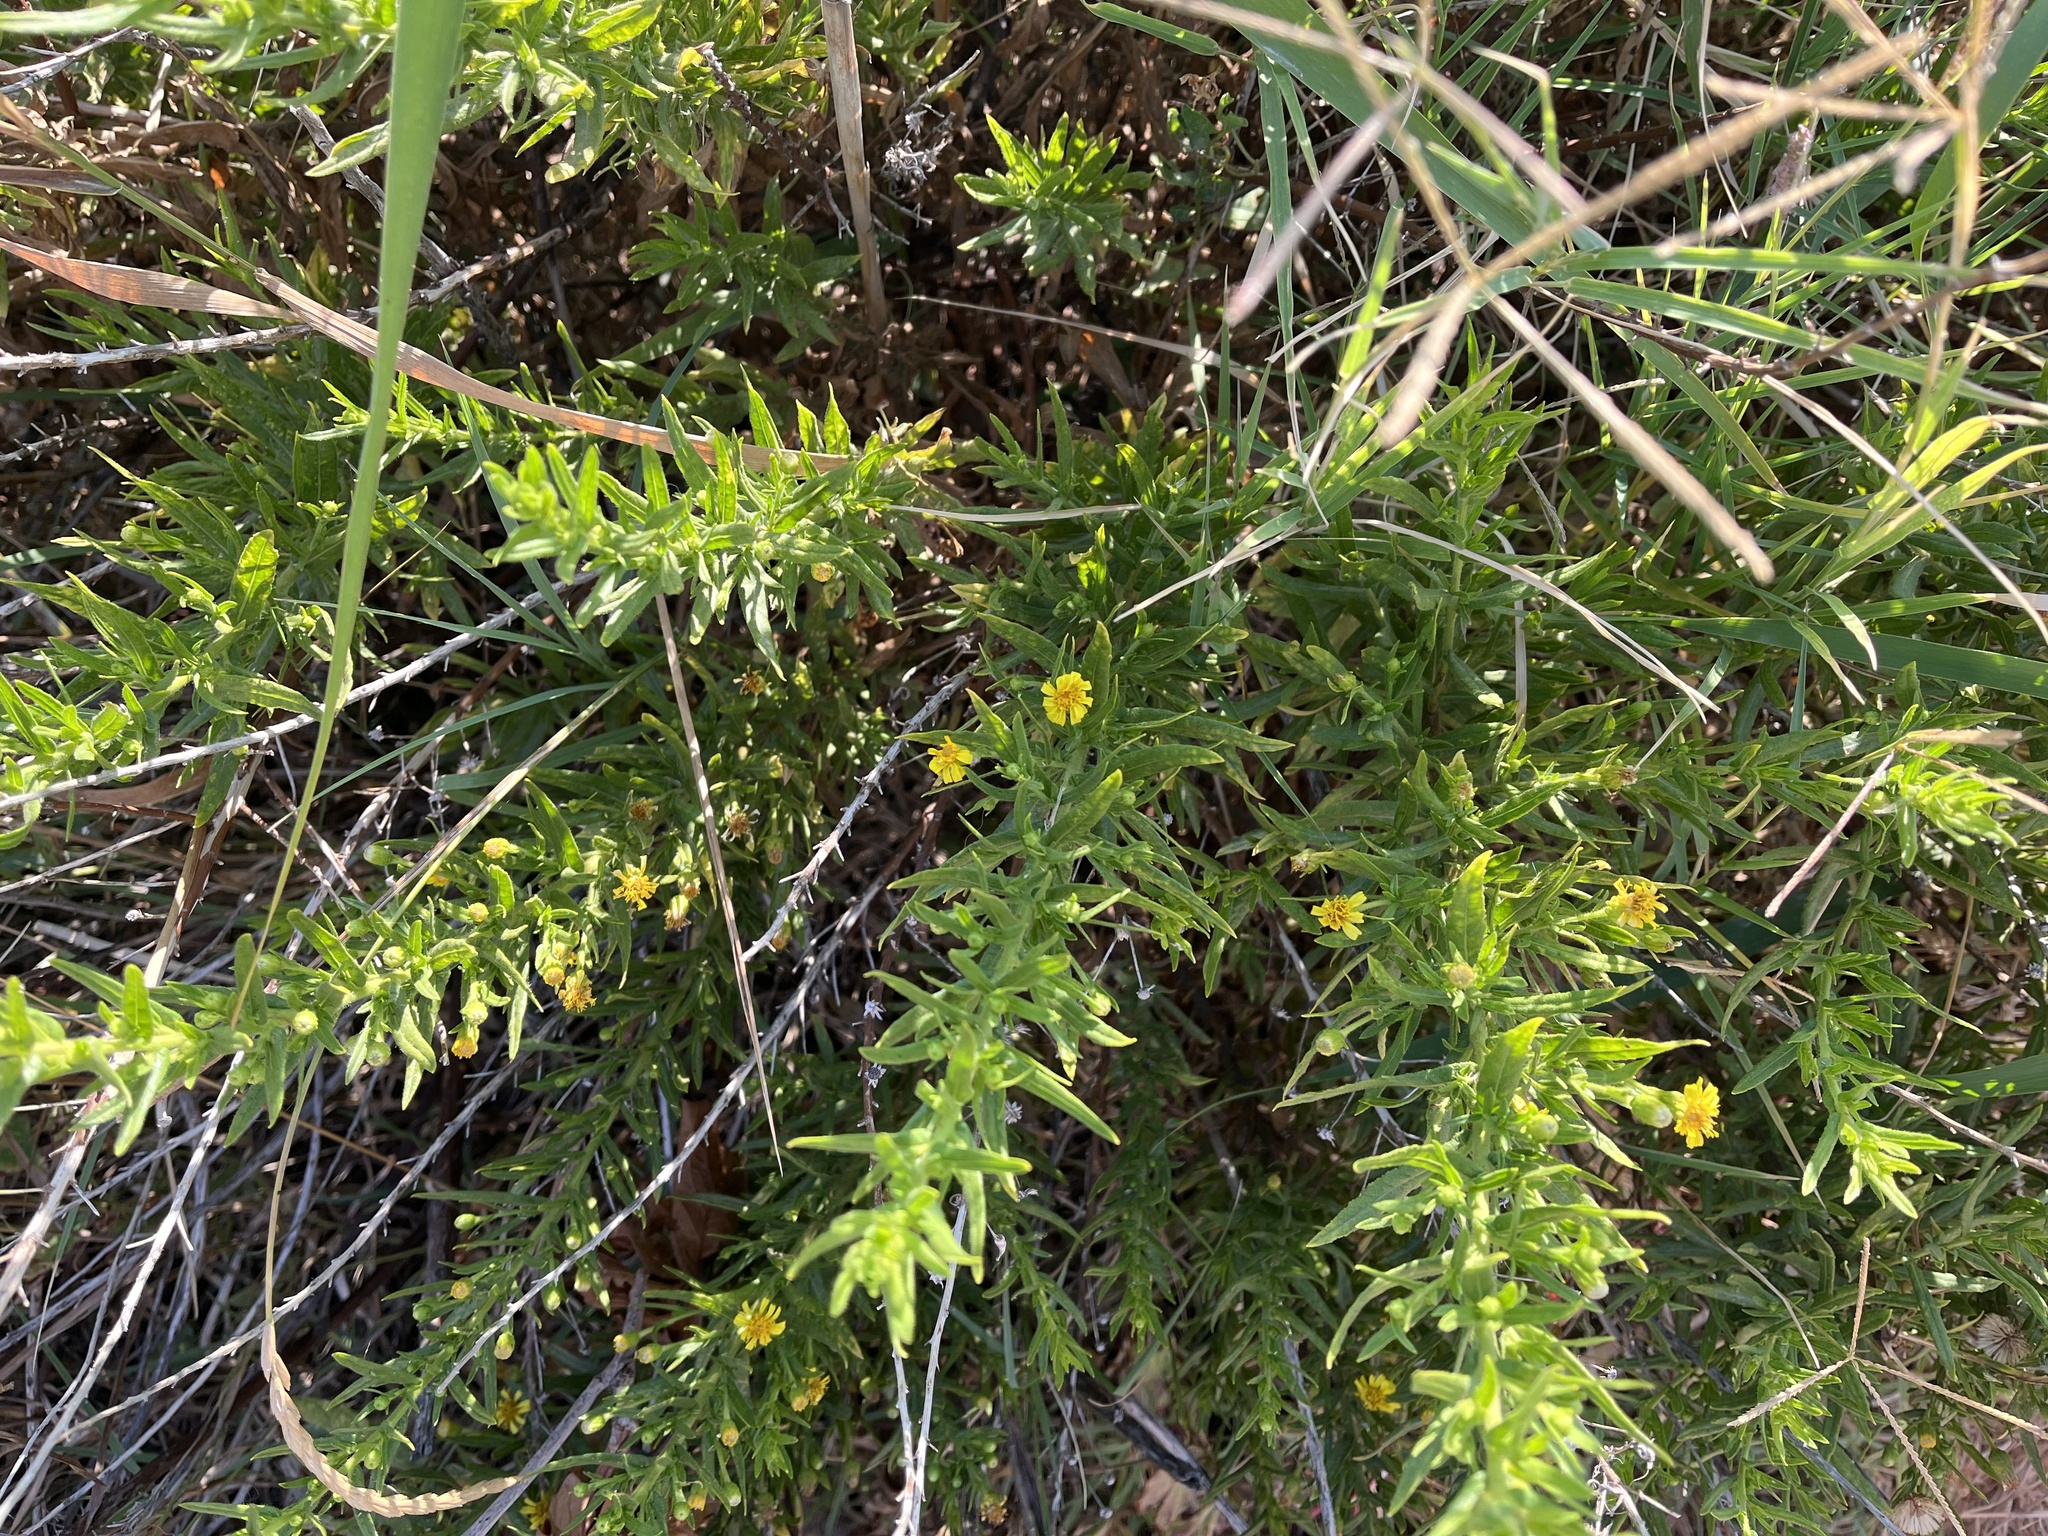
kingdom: Plantae
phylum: Tracheophyta
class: Magnoliopsida
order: Asterales
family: Asteraceae
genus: Dittrichia
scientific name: Dittrichia viscosa
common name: Woody fleabane
